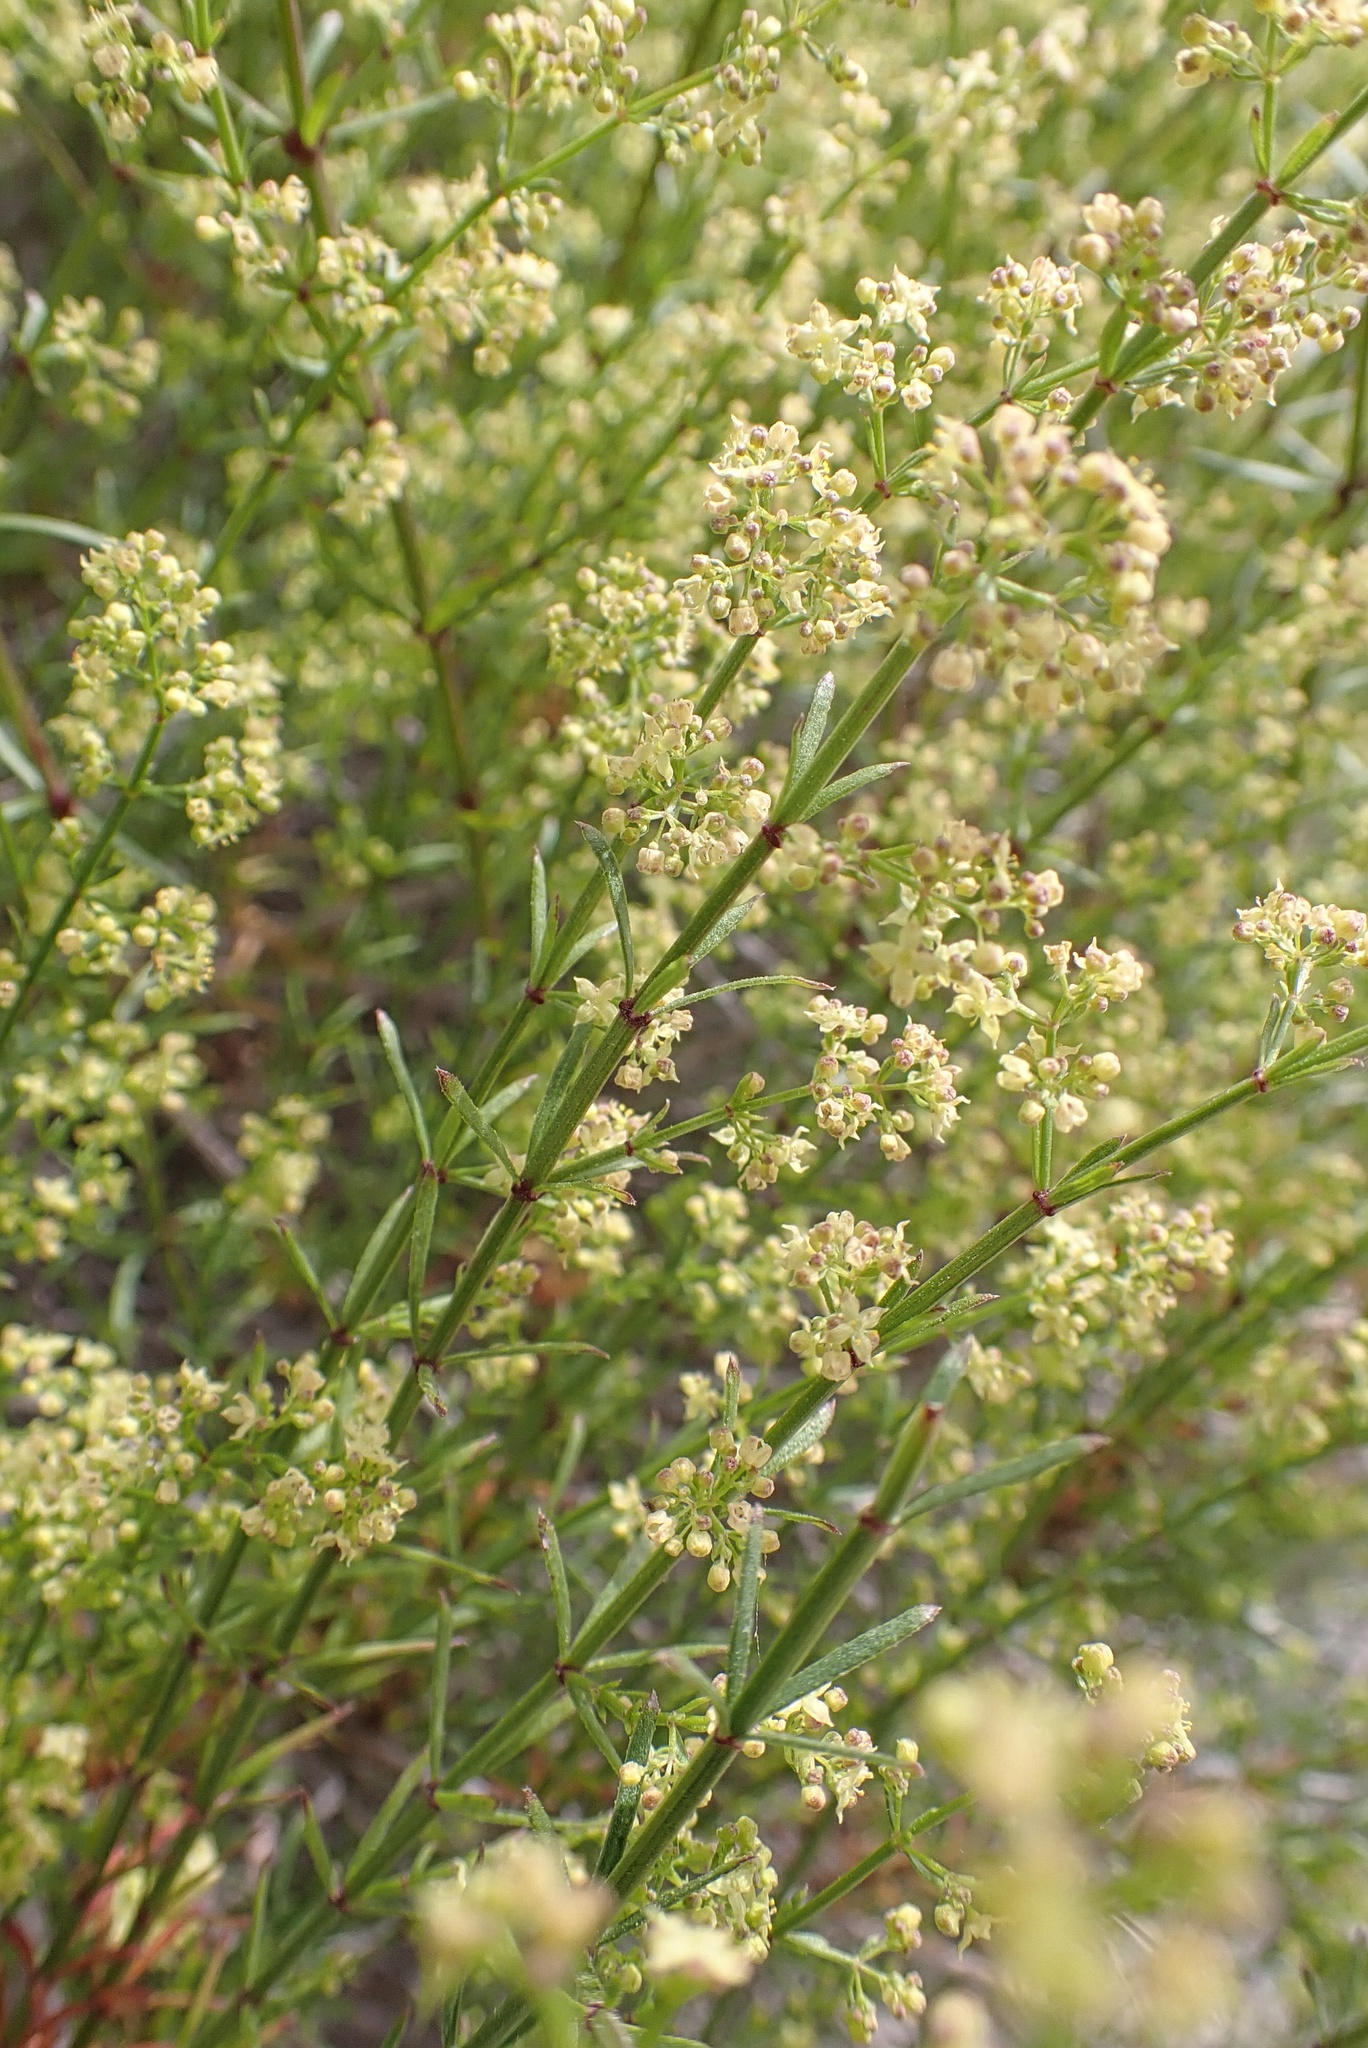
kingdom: Plantae
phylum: Tracheophyta
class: Magnoliopsida
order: Gentianales
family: Rubiaceae
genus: Galium
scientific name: Galium angustifolium
